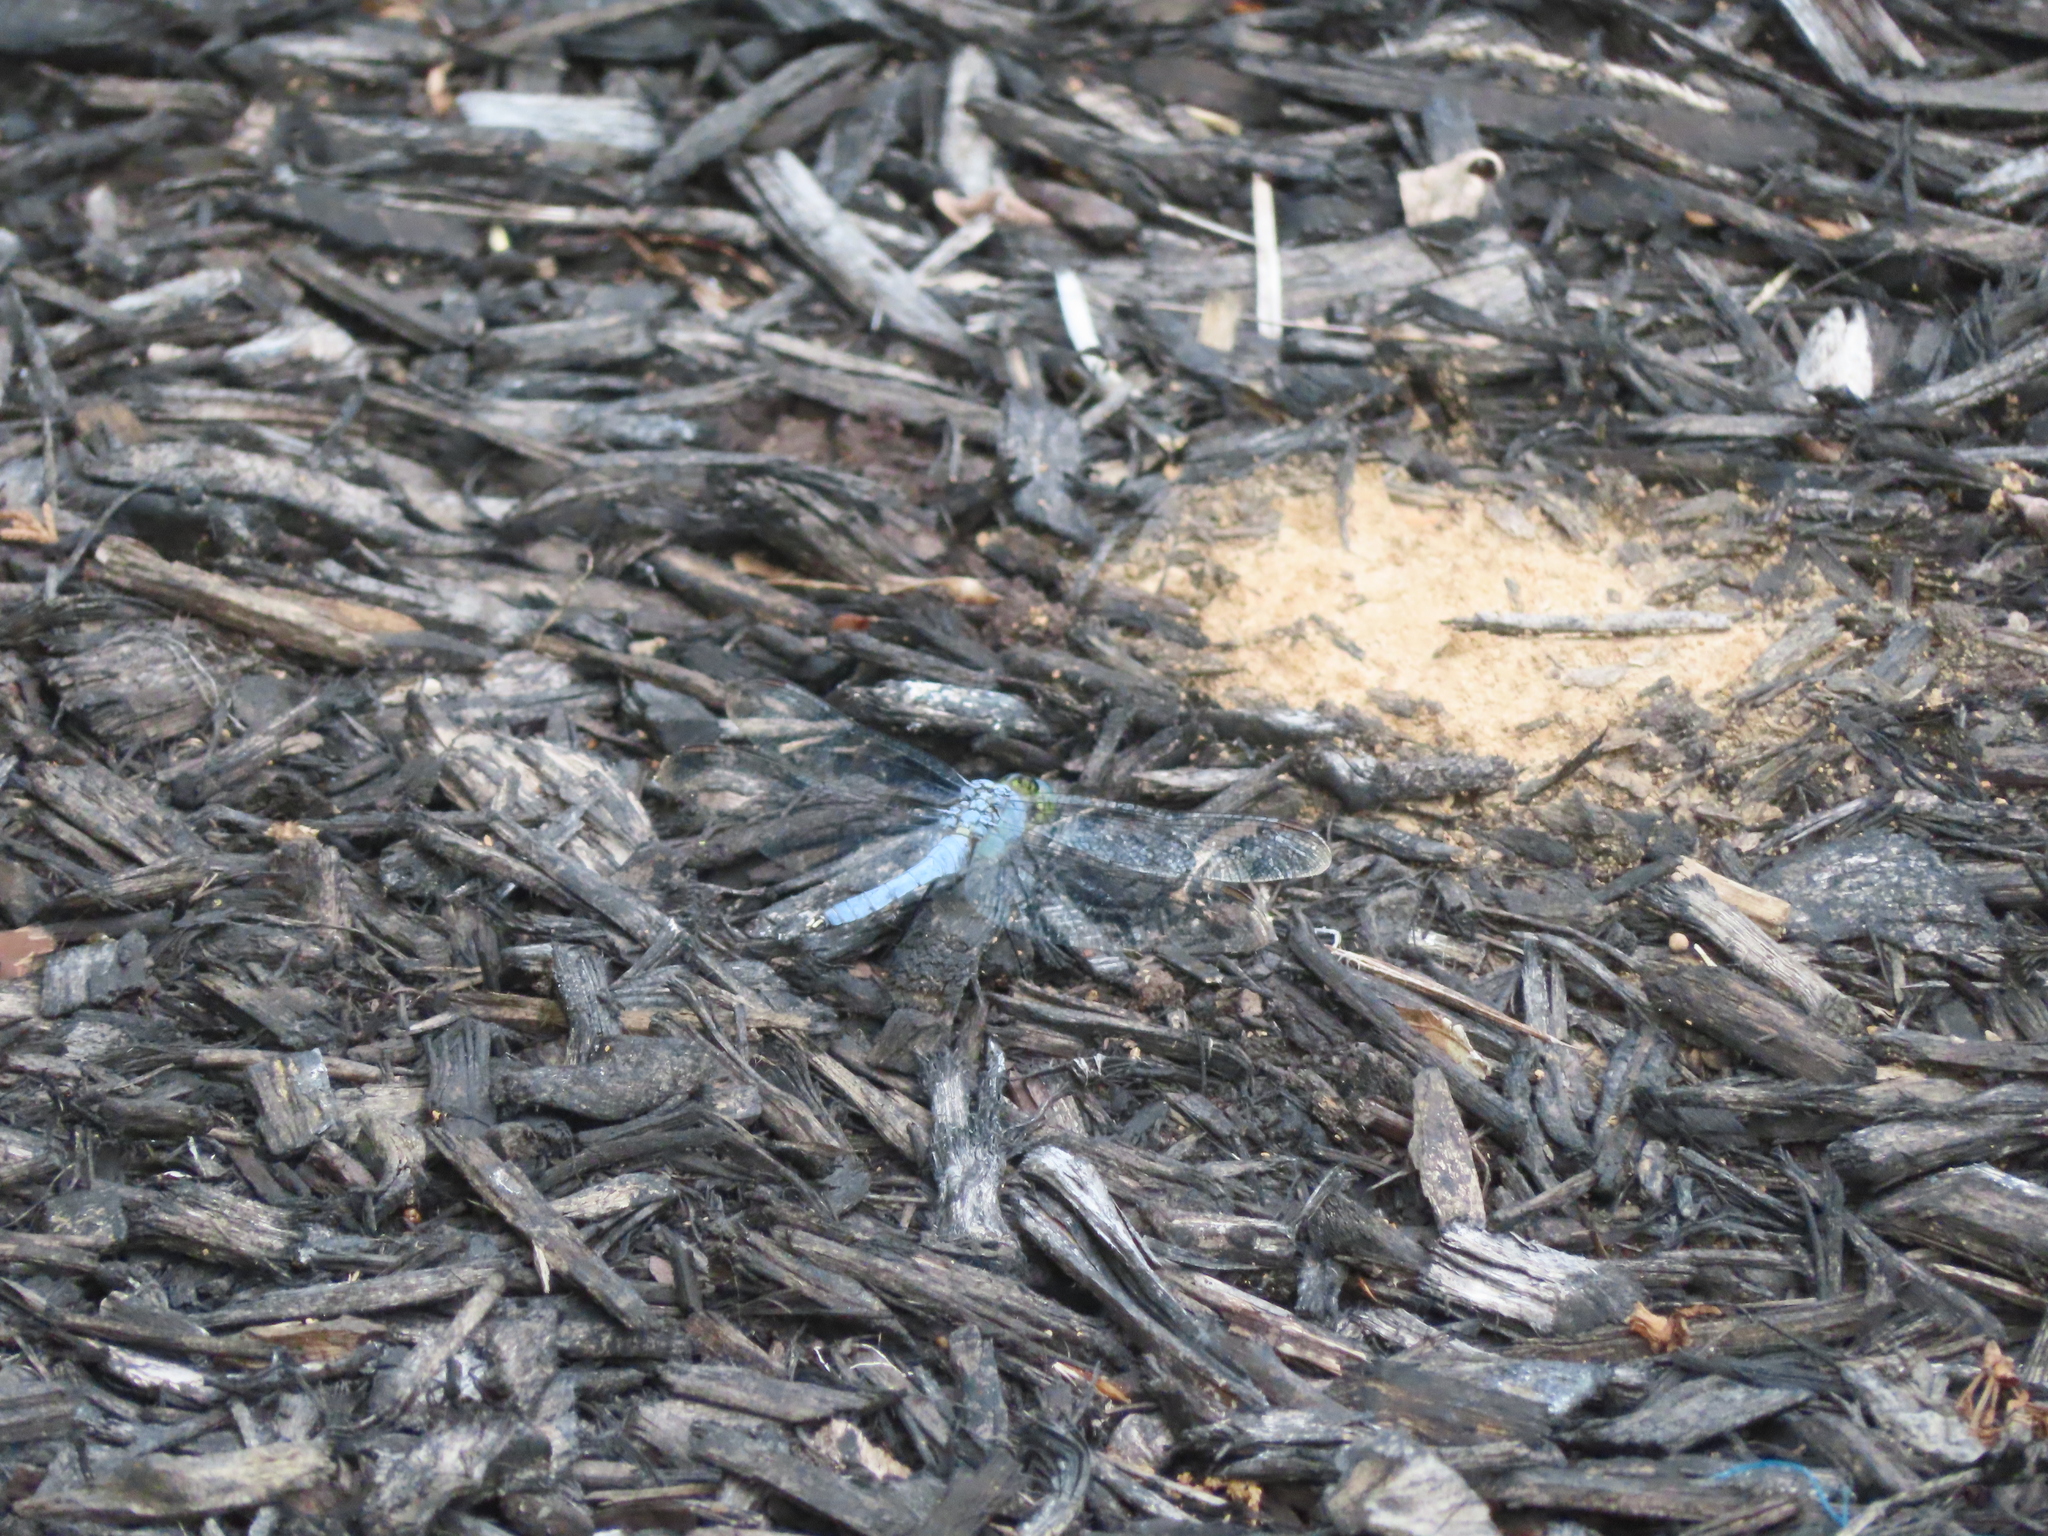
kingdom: Animalia
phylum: Arthropoda
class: Insecta
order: Odonata
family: Libellulidae
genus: Erythemis
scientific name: Erythemis simplicicollis
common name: Eastern pondhawk
